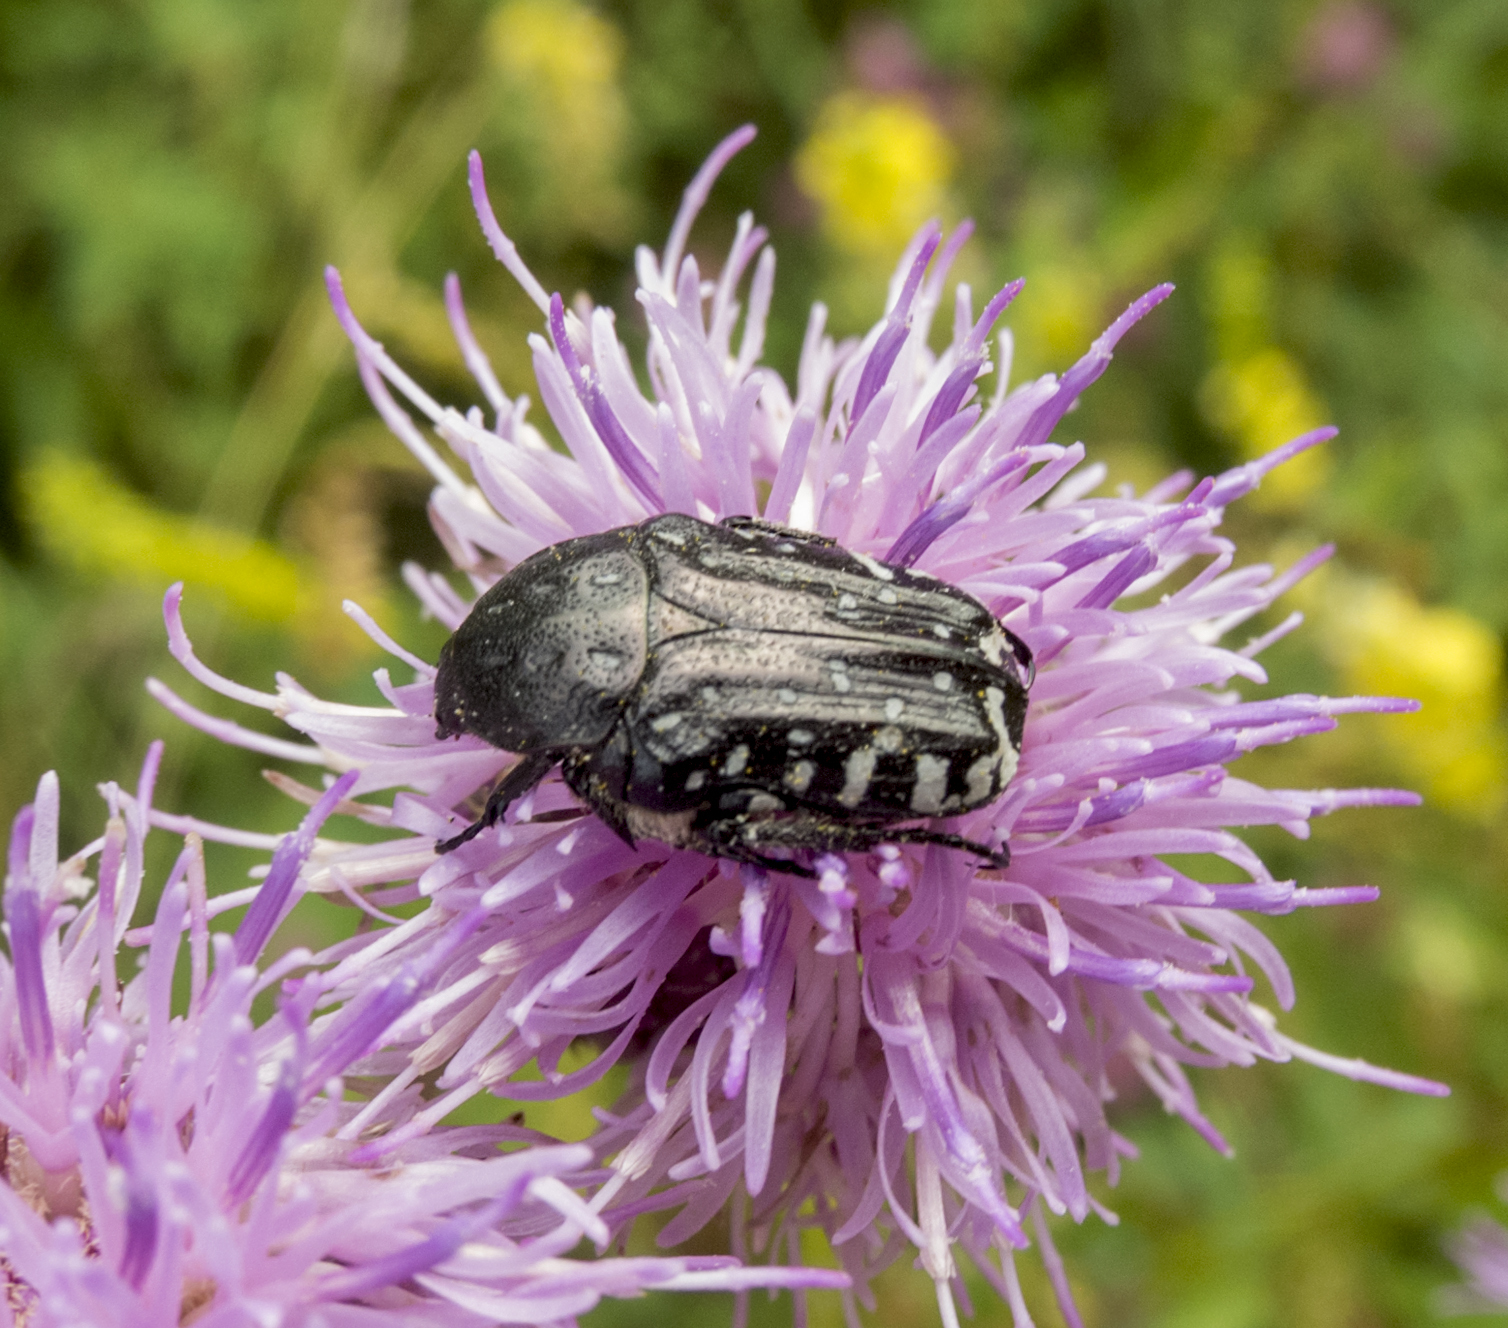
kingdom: Animalia
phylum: Arthropoda
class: Insecta
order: Coleoptera
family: Scarabaeidae
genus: Oxythyrea
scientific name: Oxythyrea funesta
